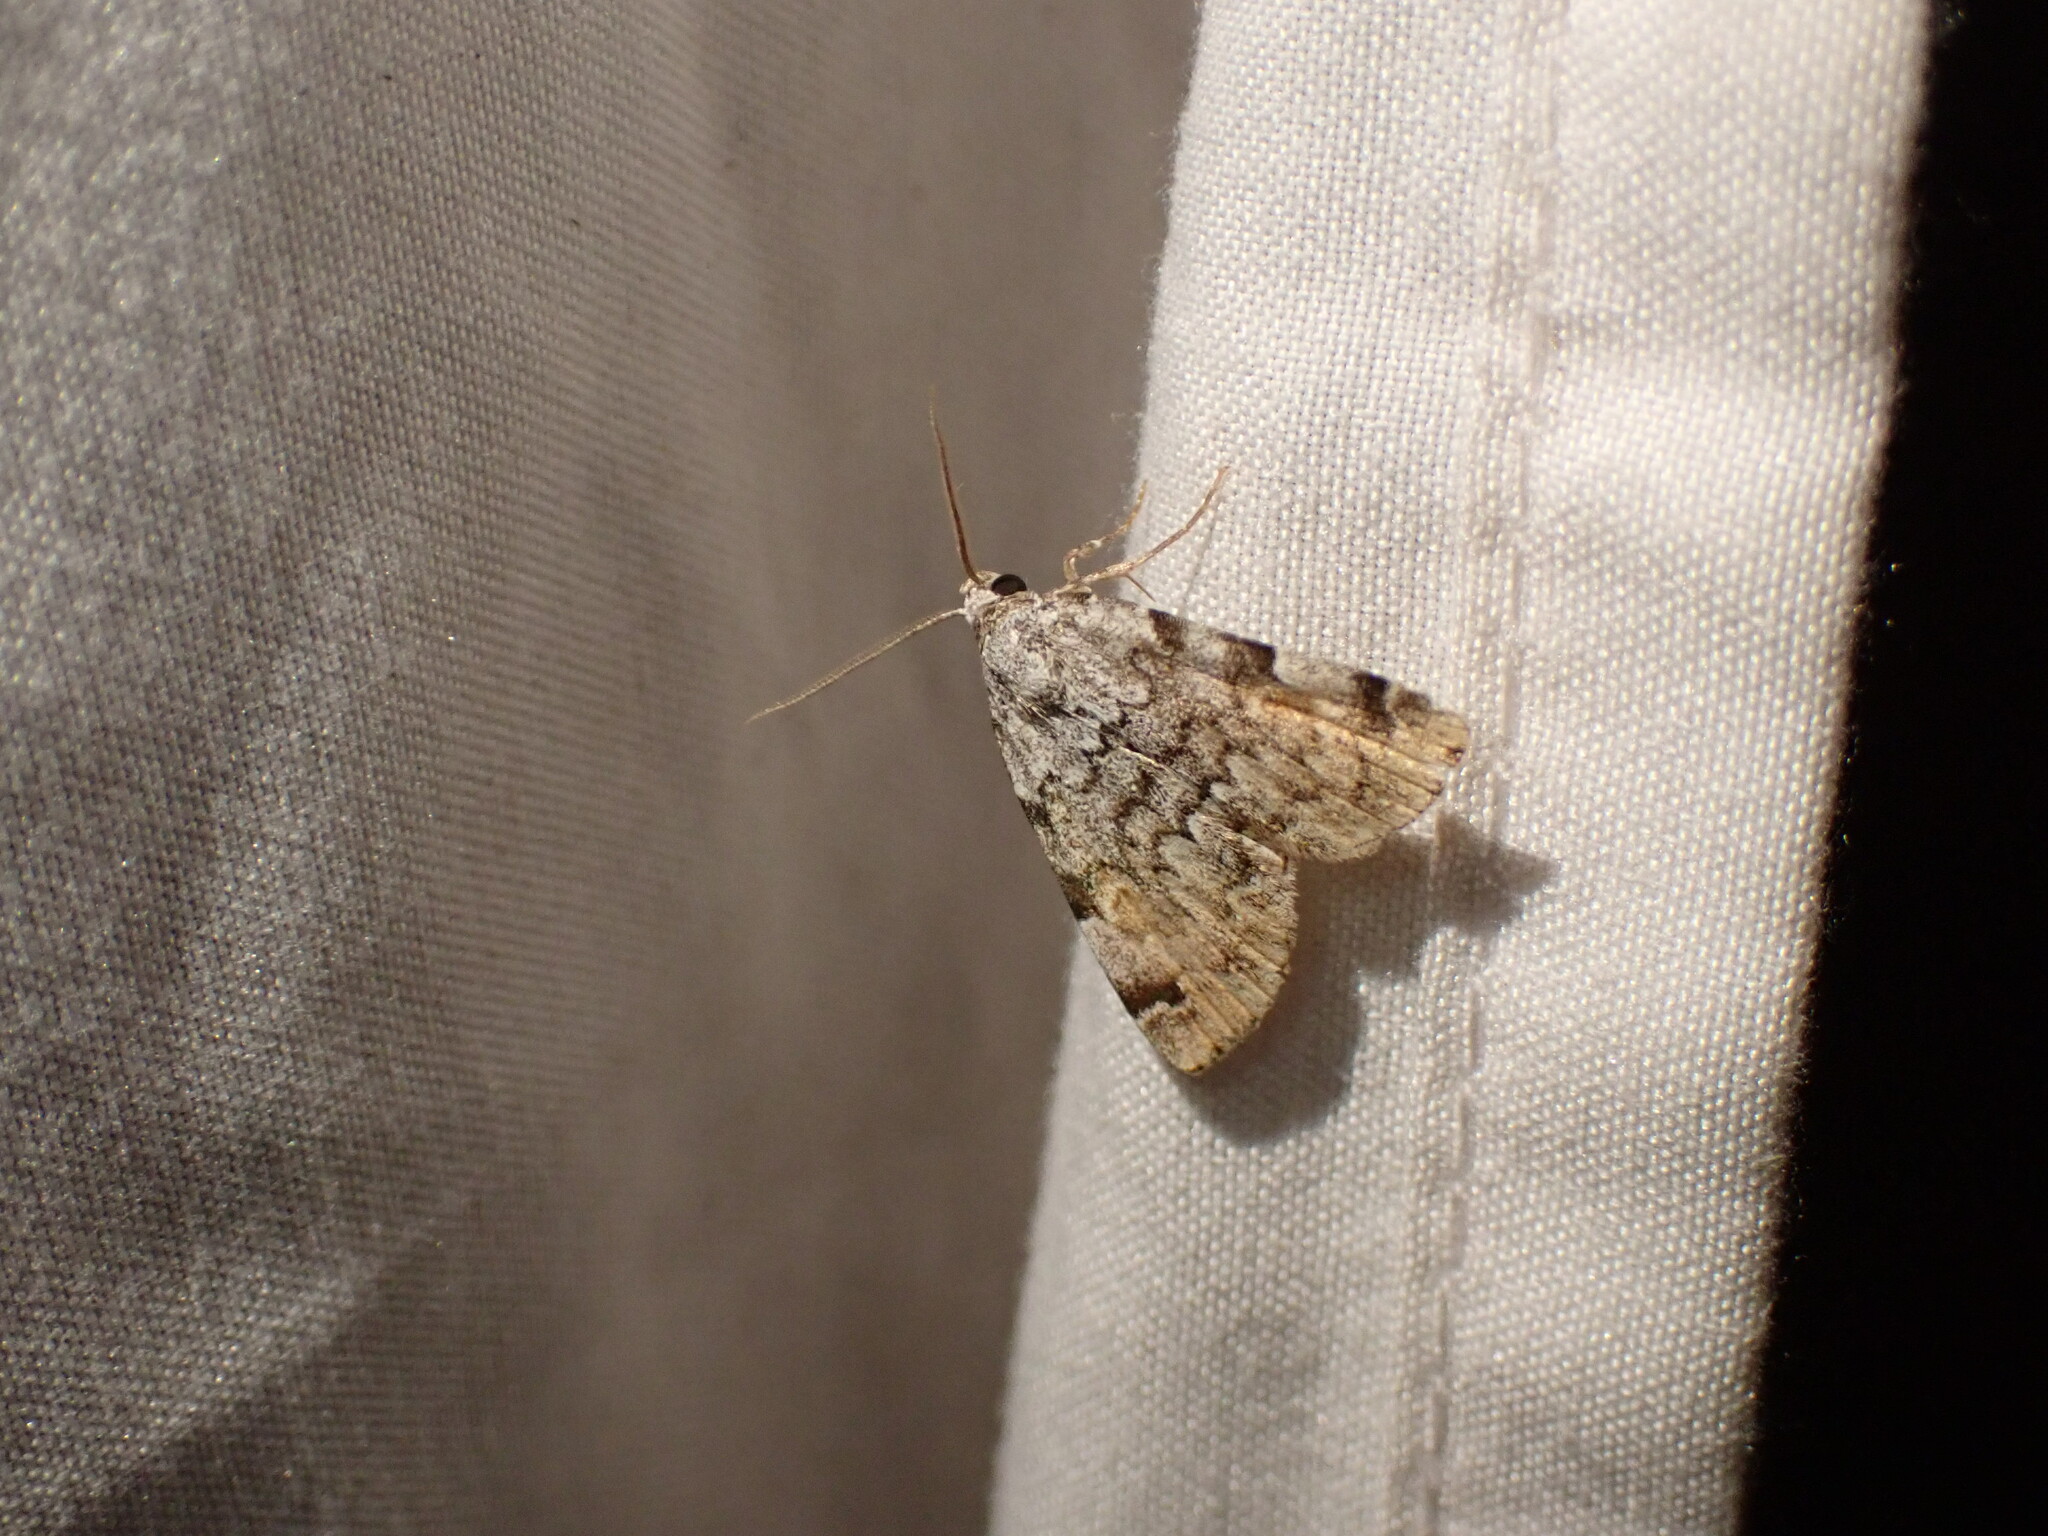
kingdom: Animalia
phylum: Arthropoda
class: Insecta
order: Lepidoptera
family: Erebidae
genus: Idia
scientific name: Idia americalis
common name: American idia moth
